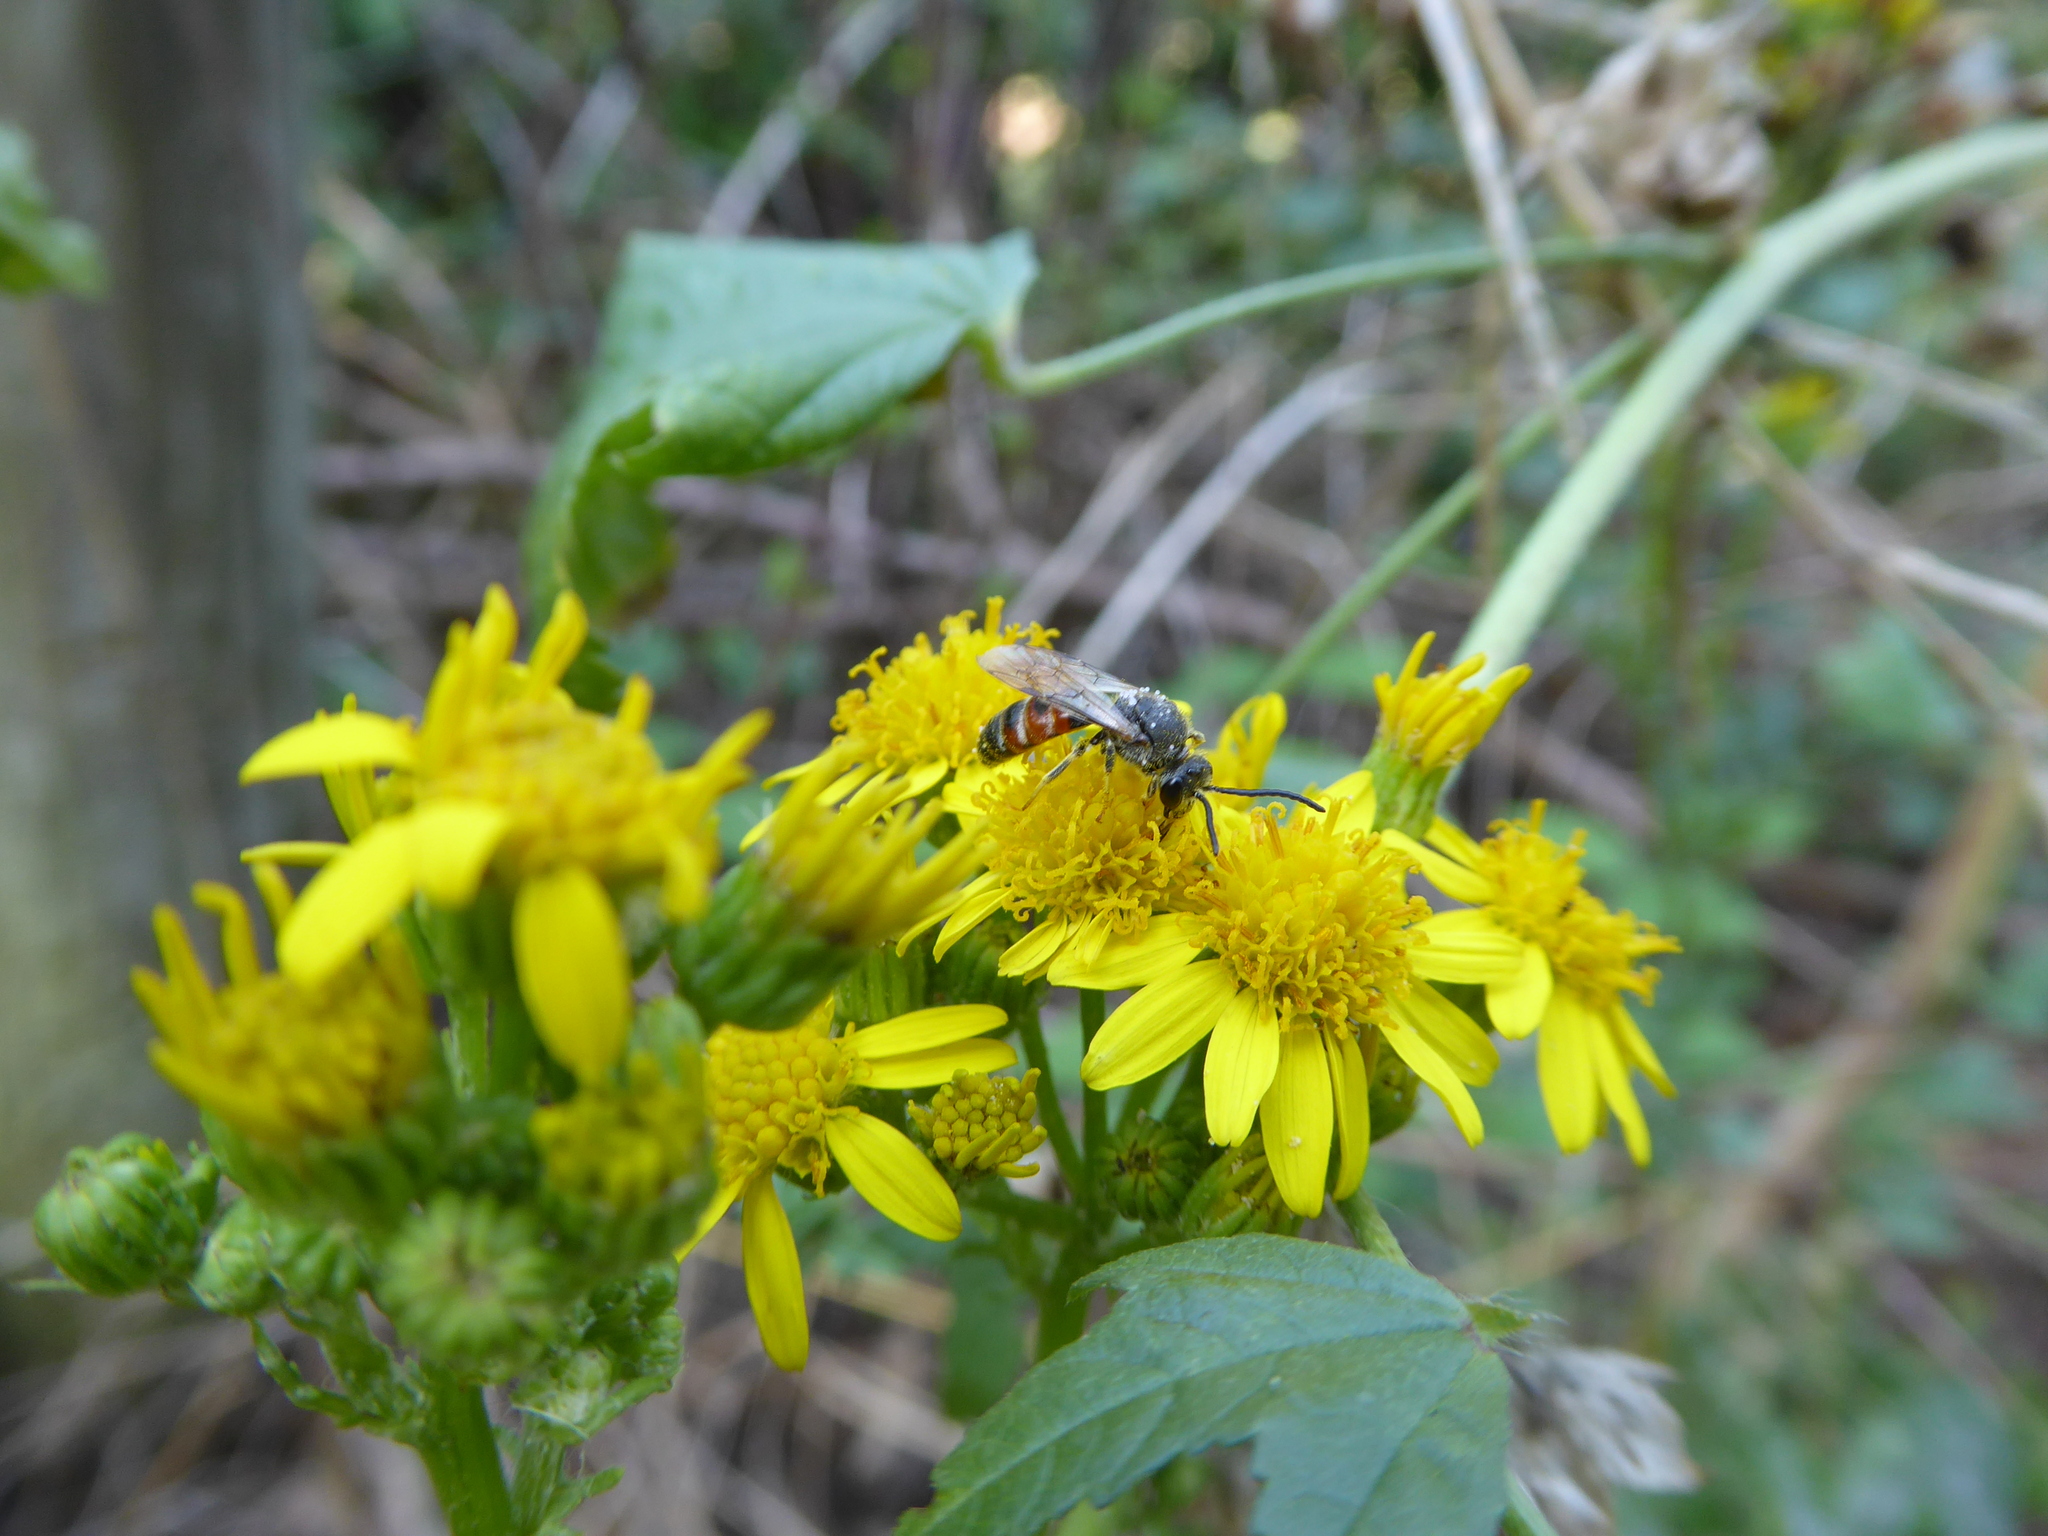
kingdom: Animalia
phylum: Arthropoda
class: Insecta
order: Hymenoptera
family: Halictidae
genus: Sphecodogastra
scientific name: Sphecodogastra
